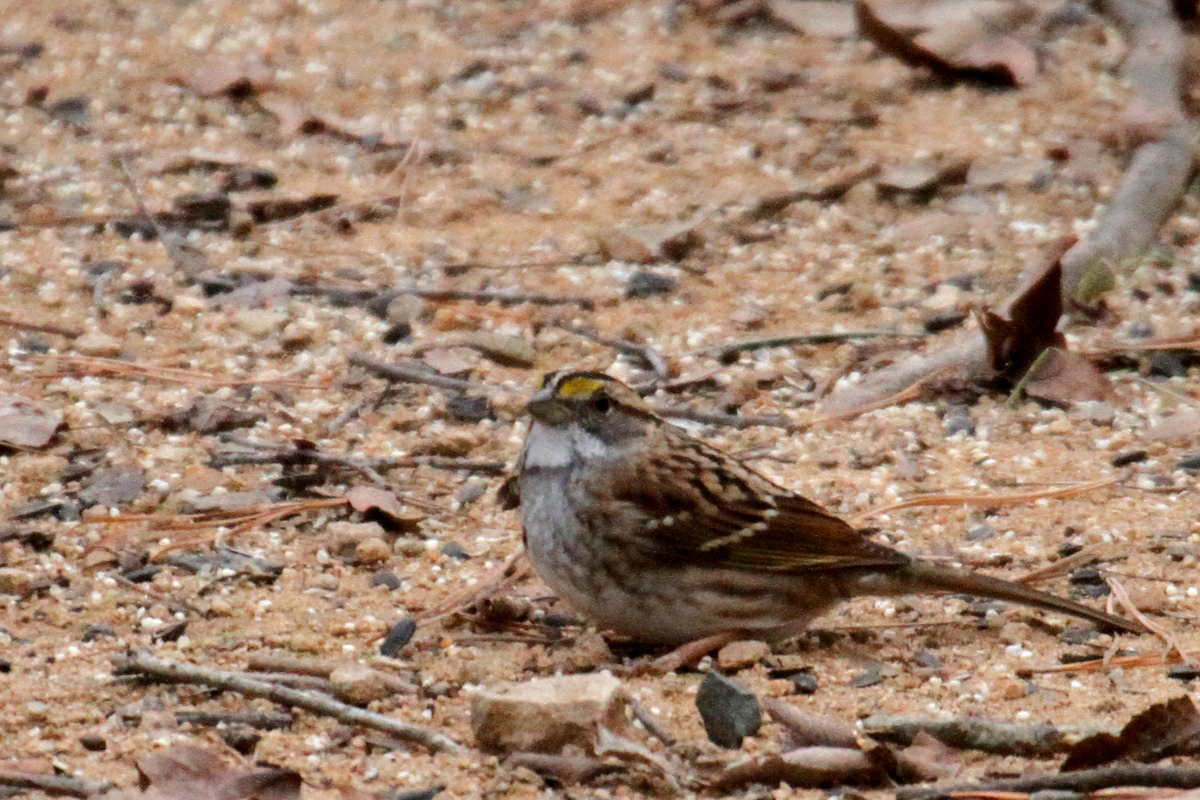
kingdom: Animalia
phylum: Chordata
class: Aves
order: Passeriformes
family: Passerellidae
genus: Zonotrichia
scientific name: Zonotrichia albicollis
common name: White-throated sparrow
